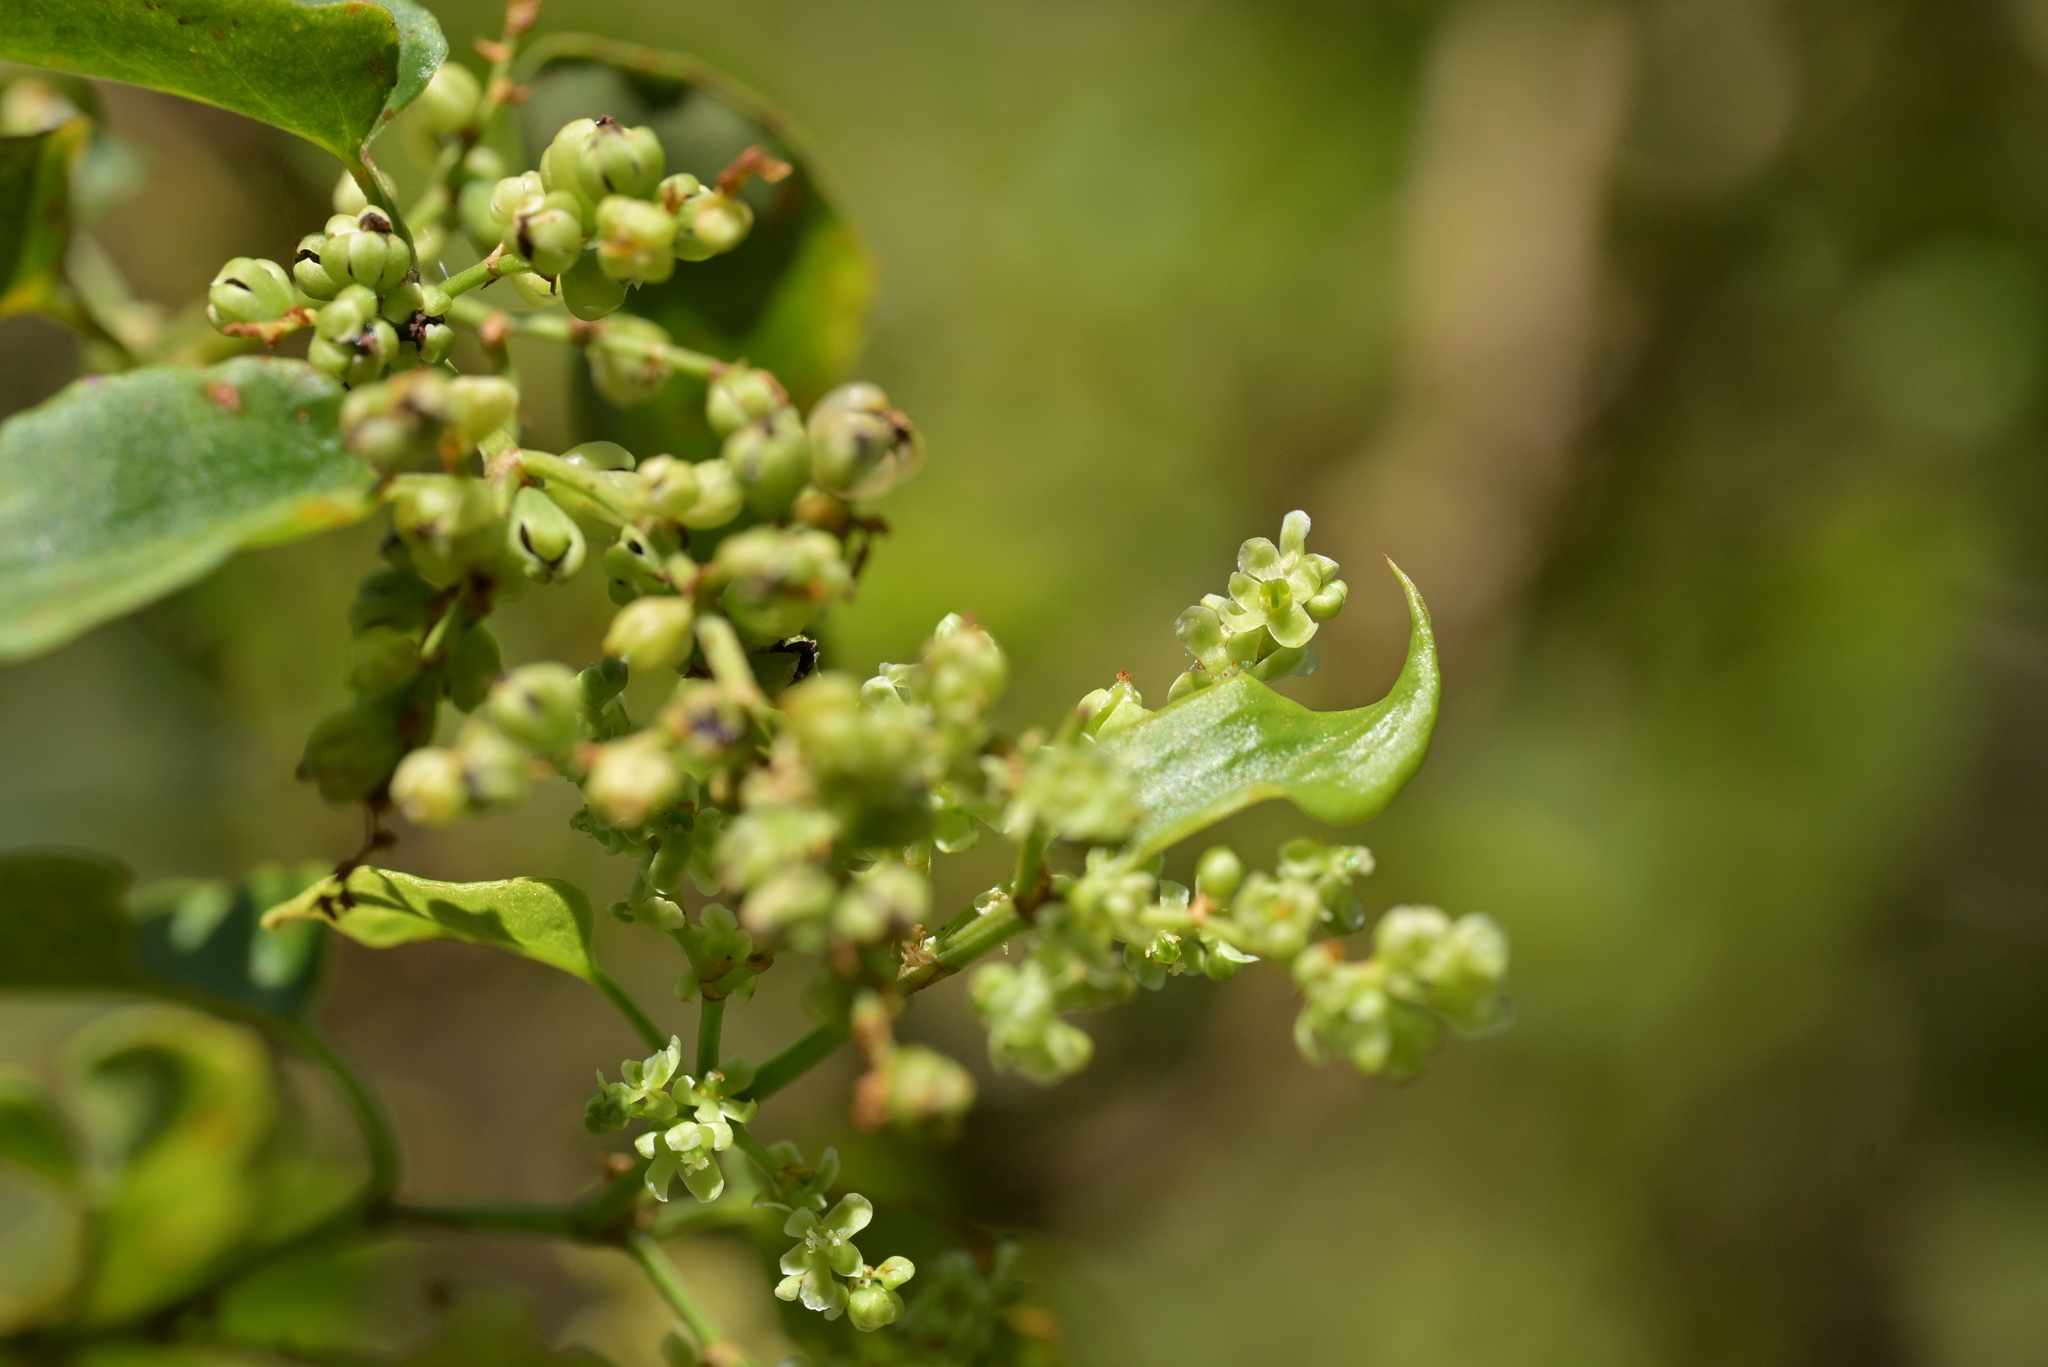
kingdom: Plantae
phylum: Tracheophyta
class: Magnoliopsida
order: Caryophyllales
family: Polygonaceae
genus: Muehlenbeckia
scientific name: Muehlenbeckia australis
